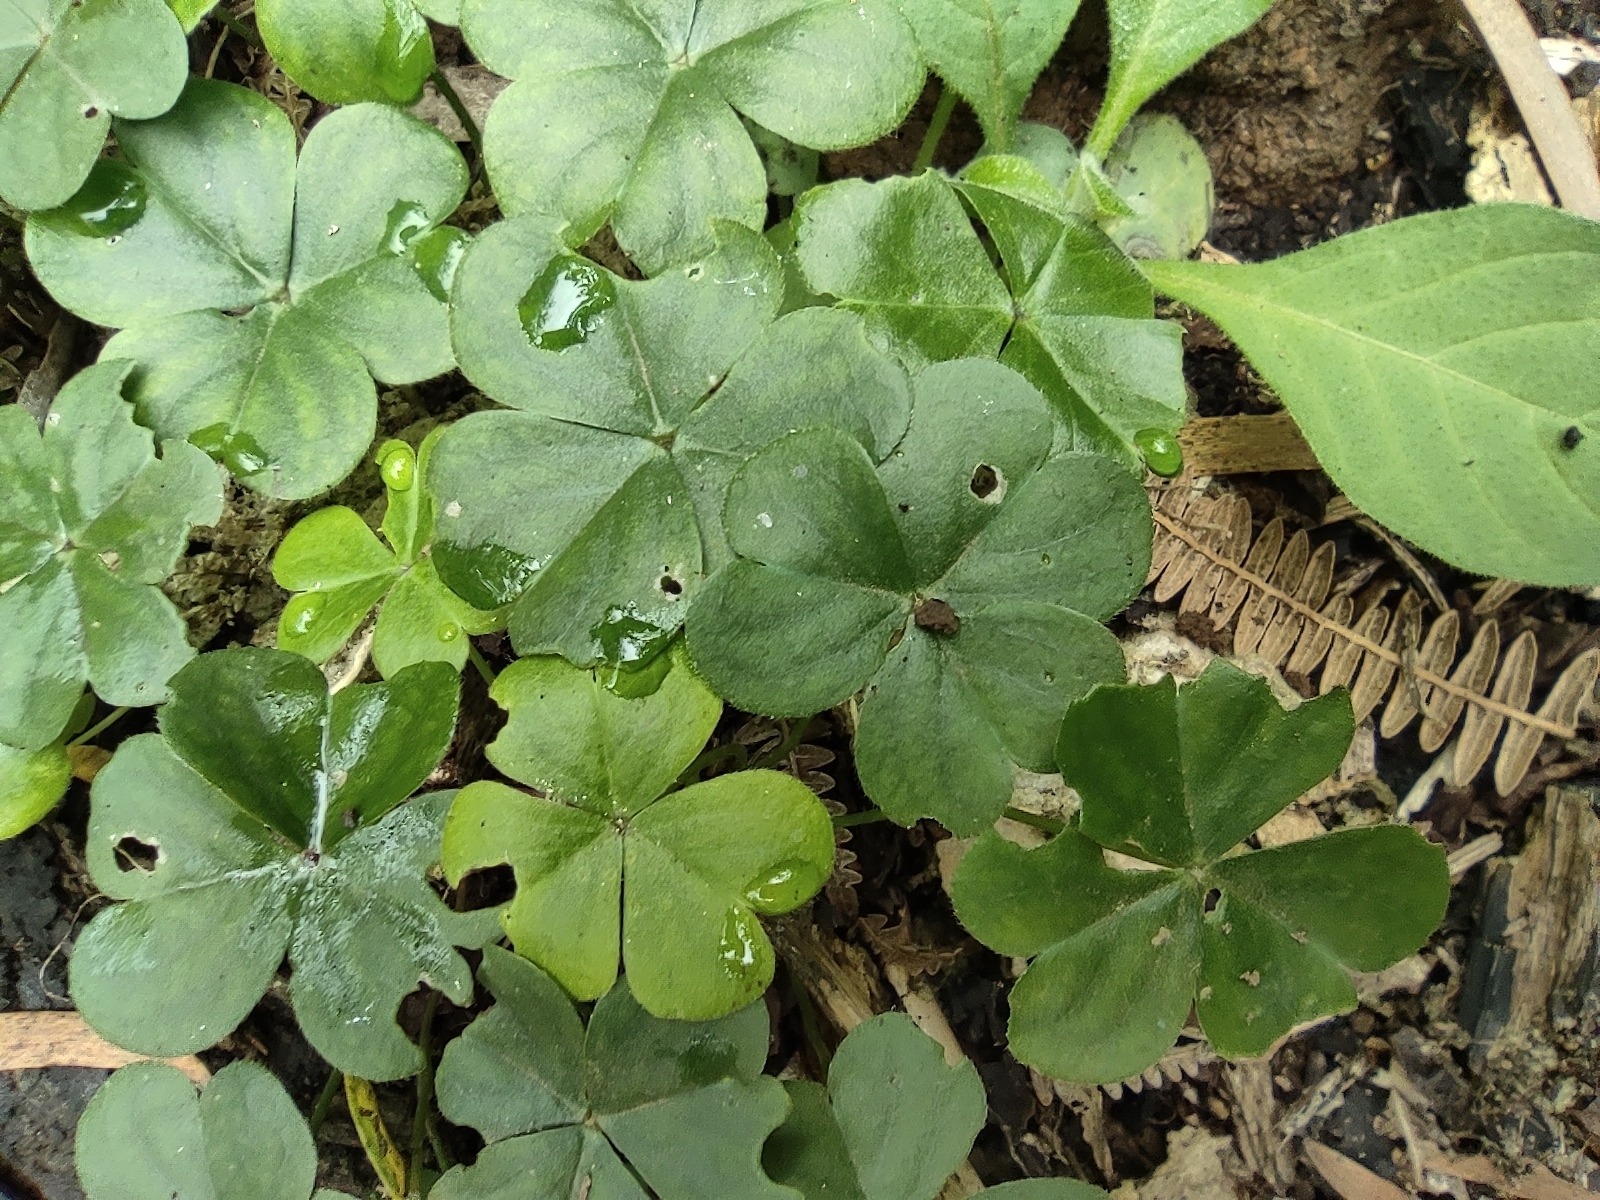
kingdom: Plantae
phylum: Tracheophyta
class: Magnoliopsida
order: Oxalidales
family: Oxalidaceae
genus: Oxalis
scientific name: Oxalis debilis
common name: Large-flowered pink-sorrel
